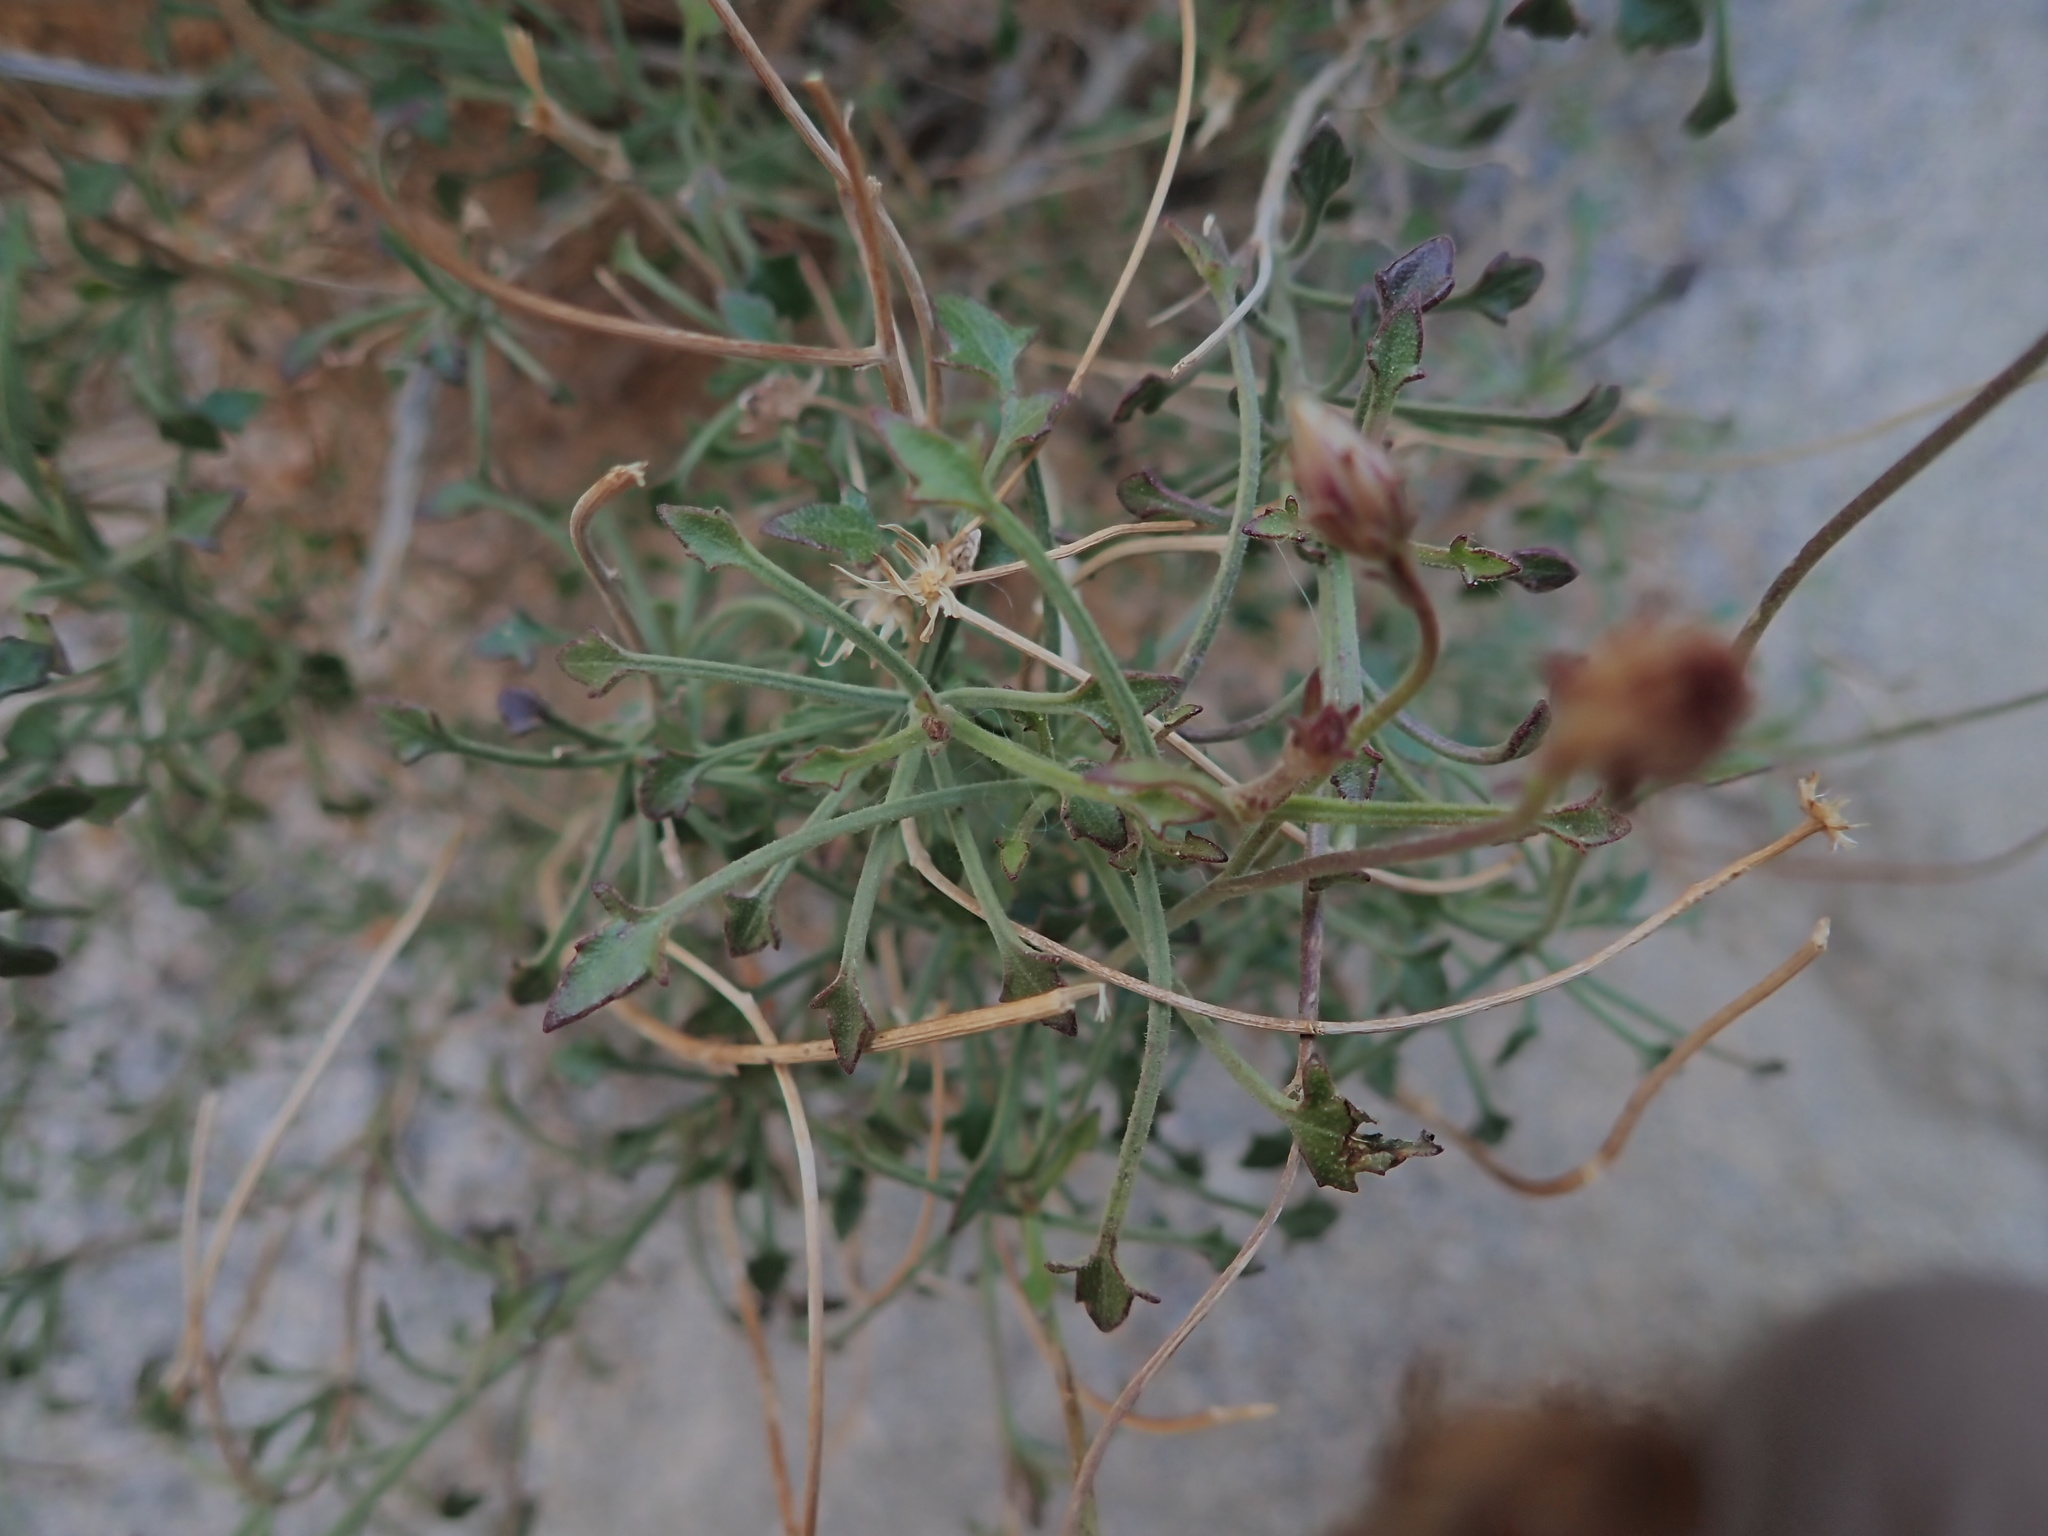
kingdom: Plantae
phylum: Tracheophyta
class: Magnoliopsida
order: Asterales
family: Asteraceae
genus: Pleurocoronis
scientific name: Pleurocoronis pluriseta
